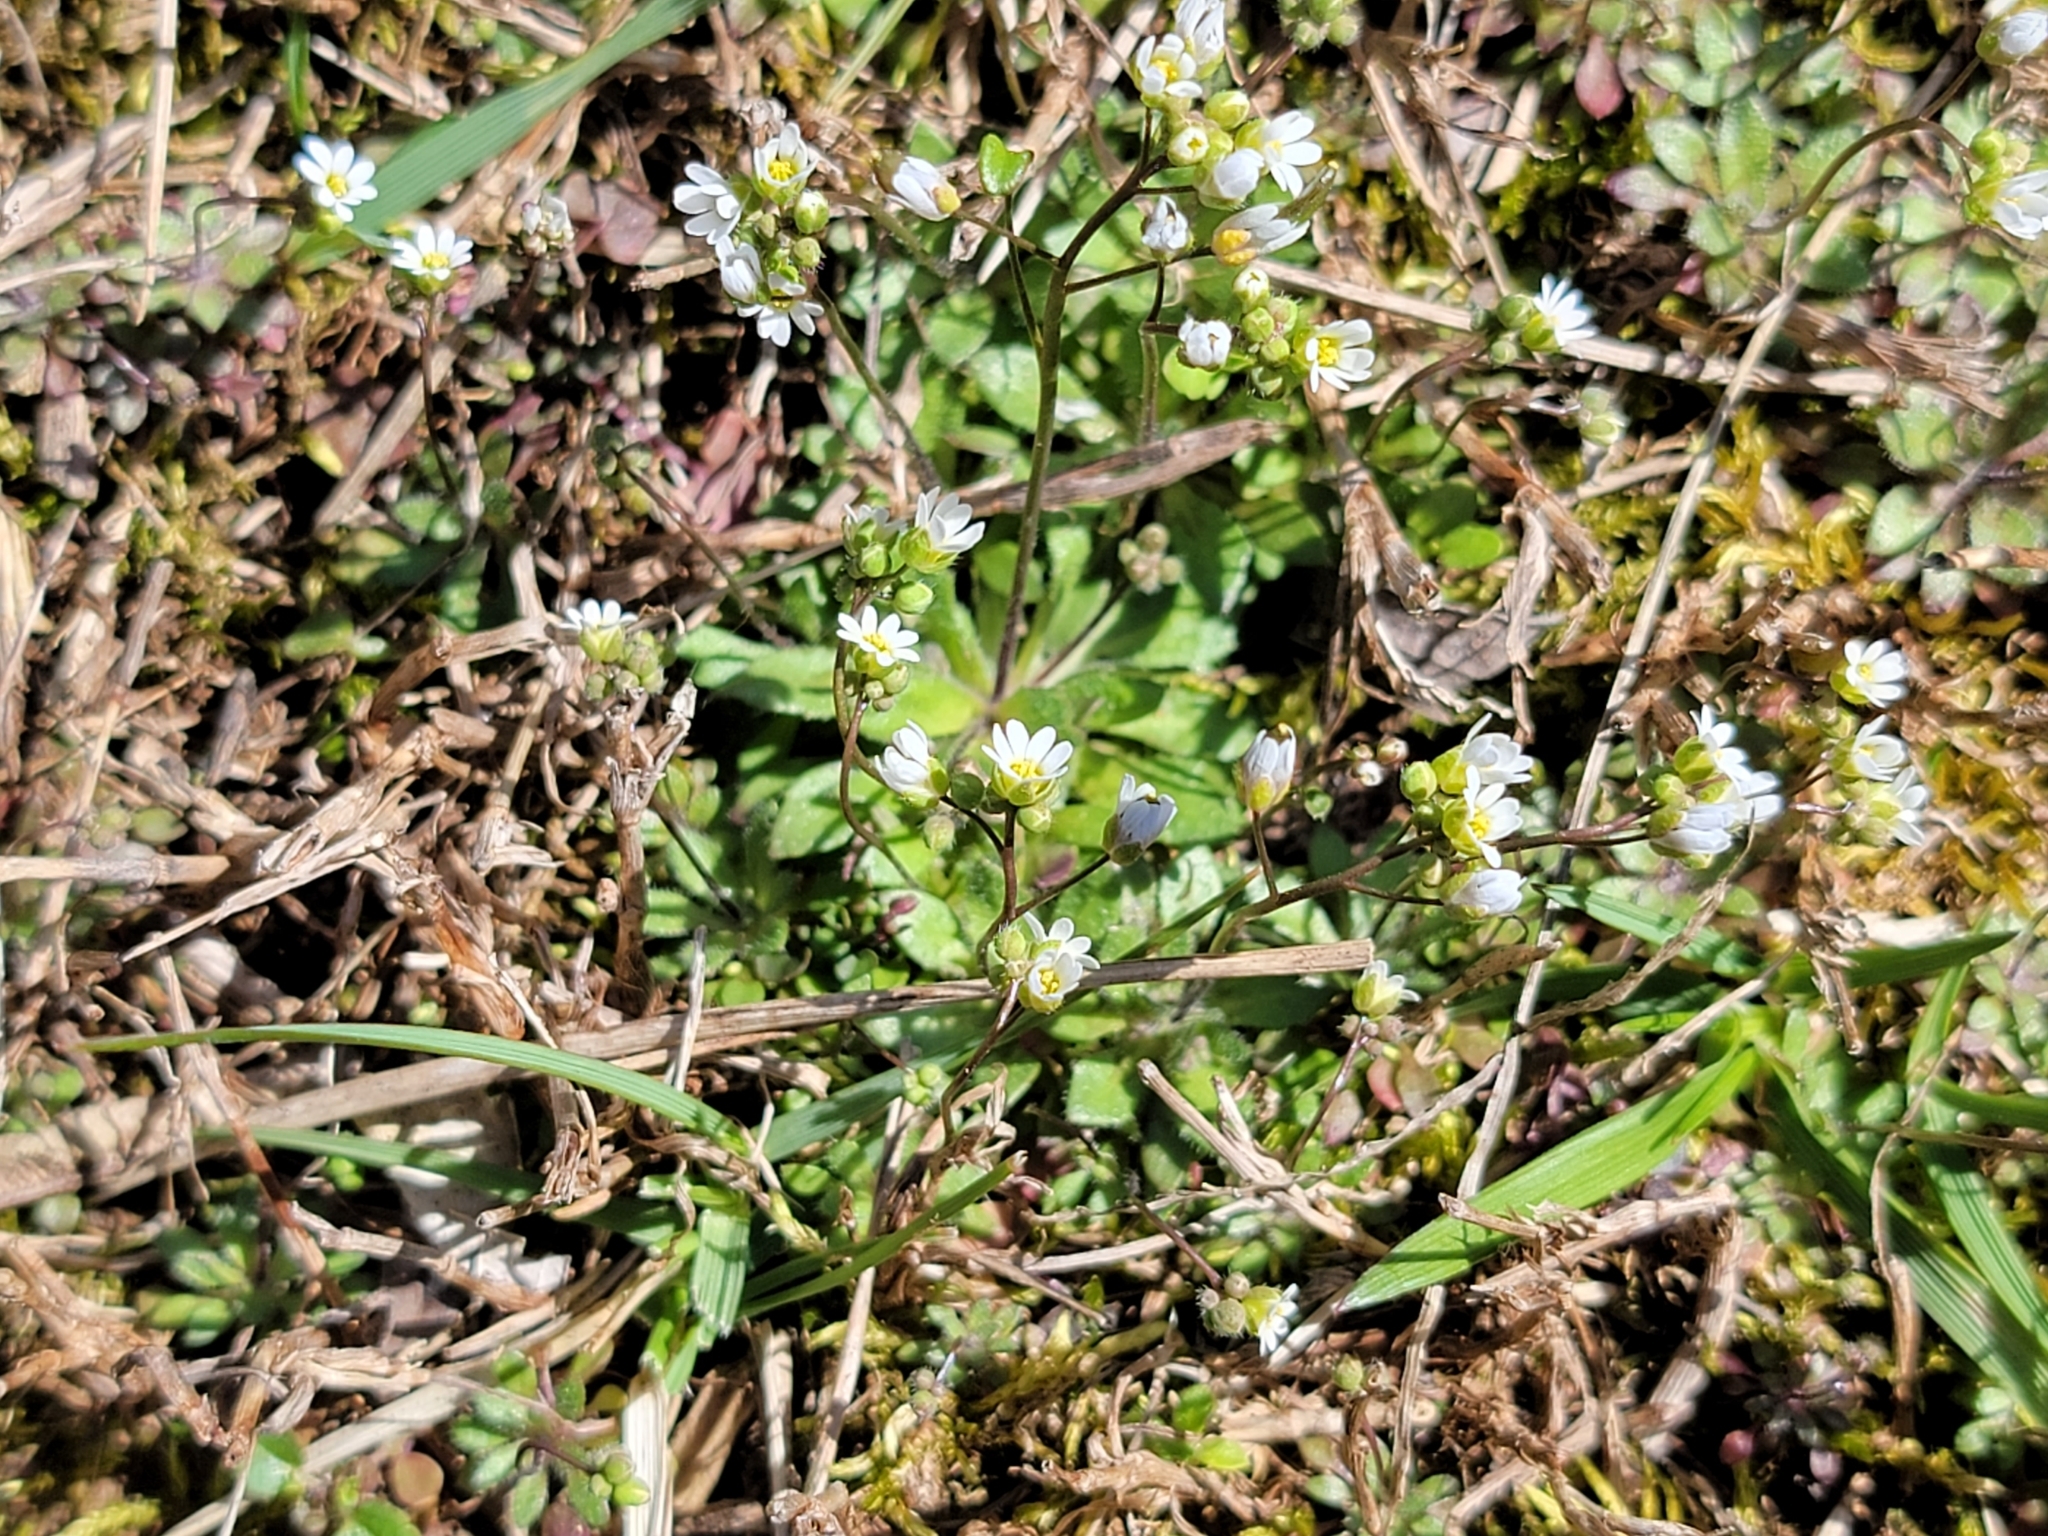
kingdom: Plantae
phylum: Tracheophyta
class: Magnoliopsida
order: Brassicales
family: Brassicaceae
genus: Draba
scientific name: Draba verna
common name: Spring draba
